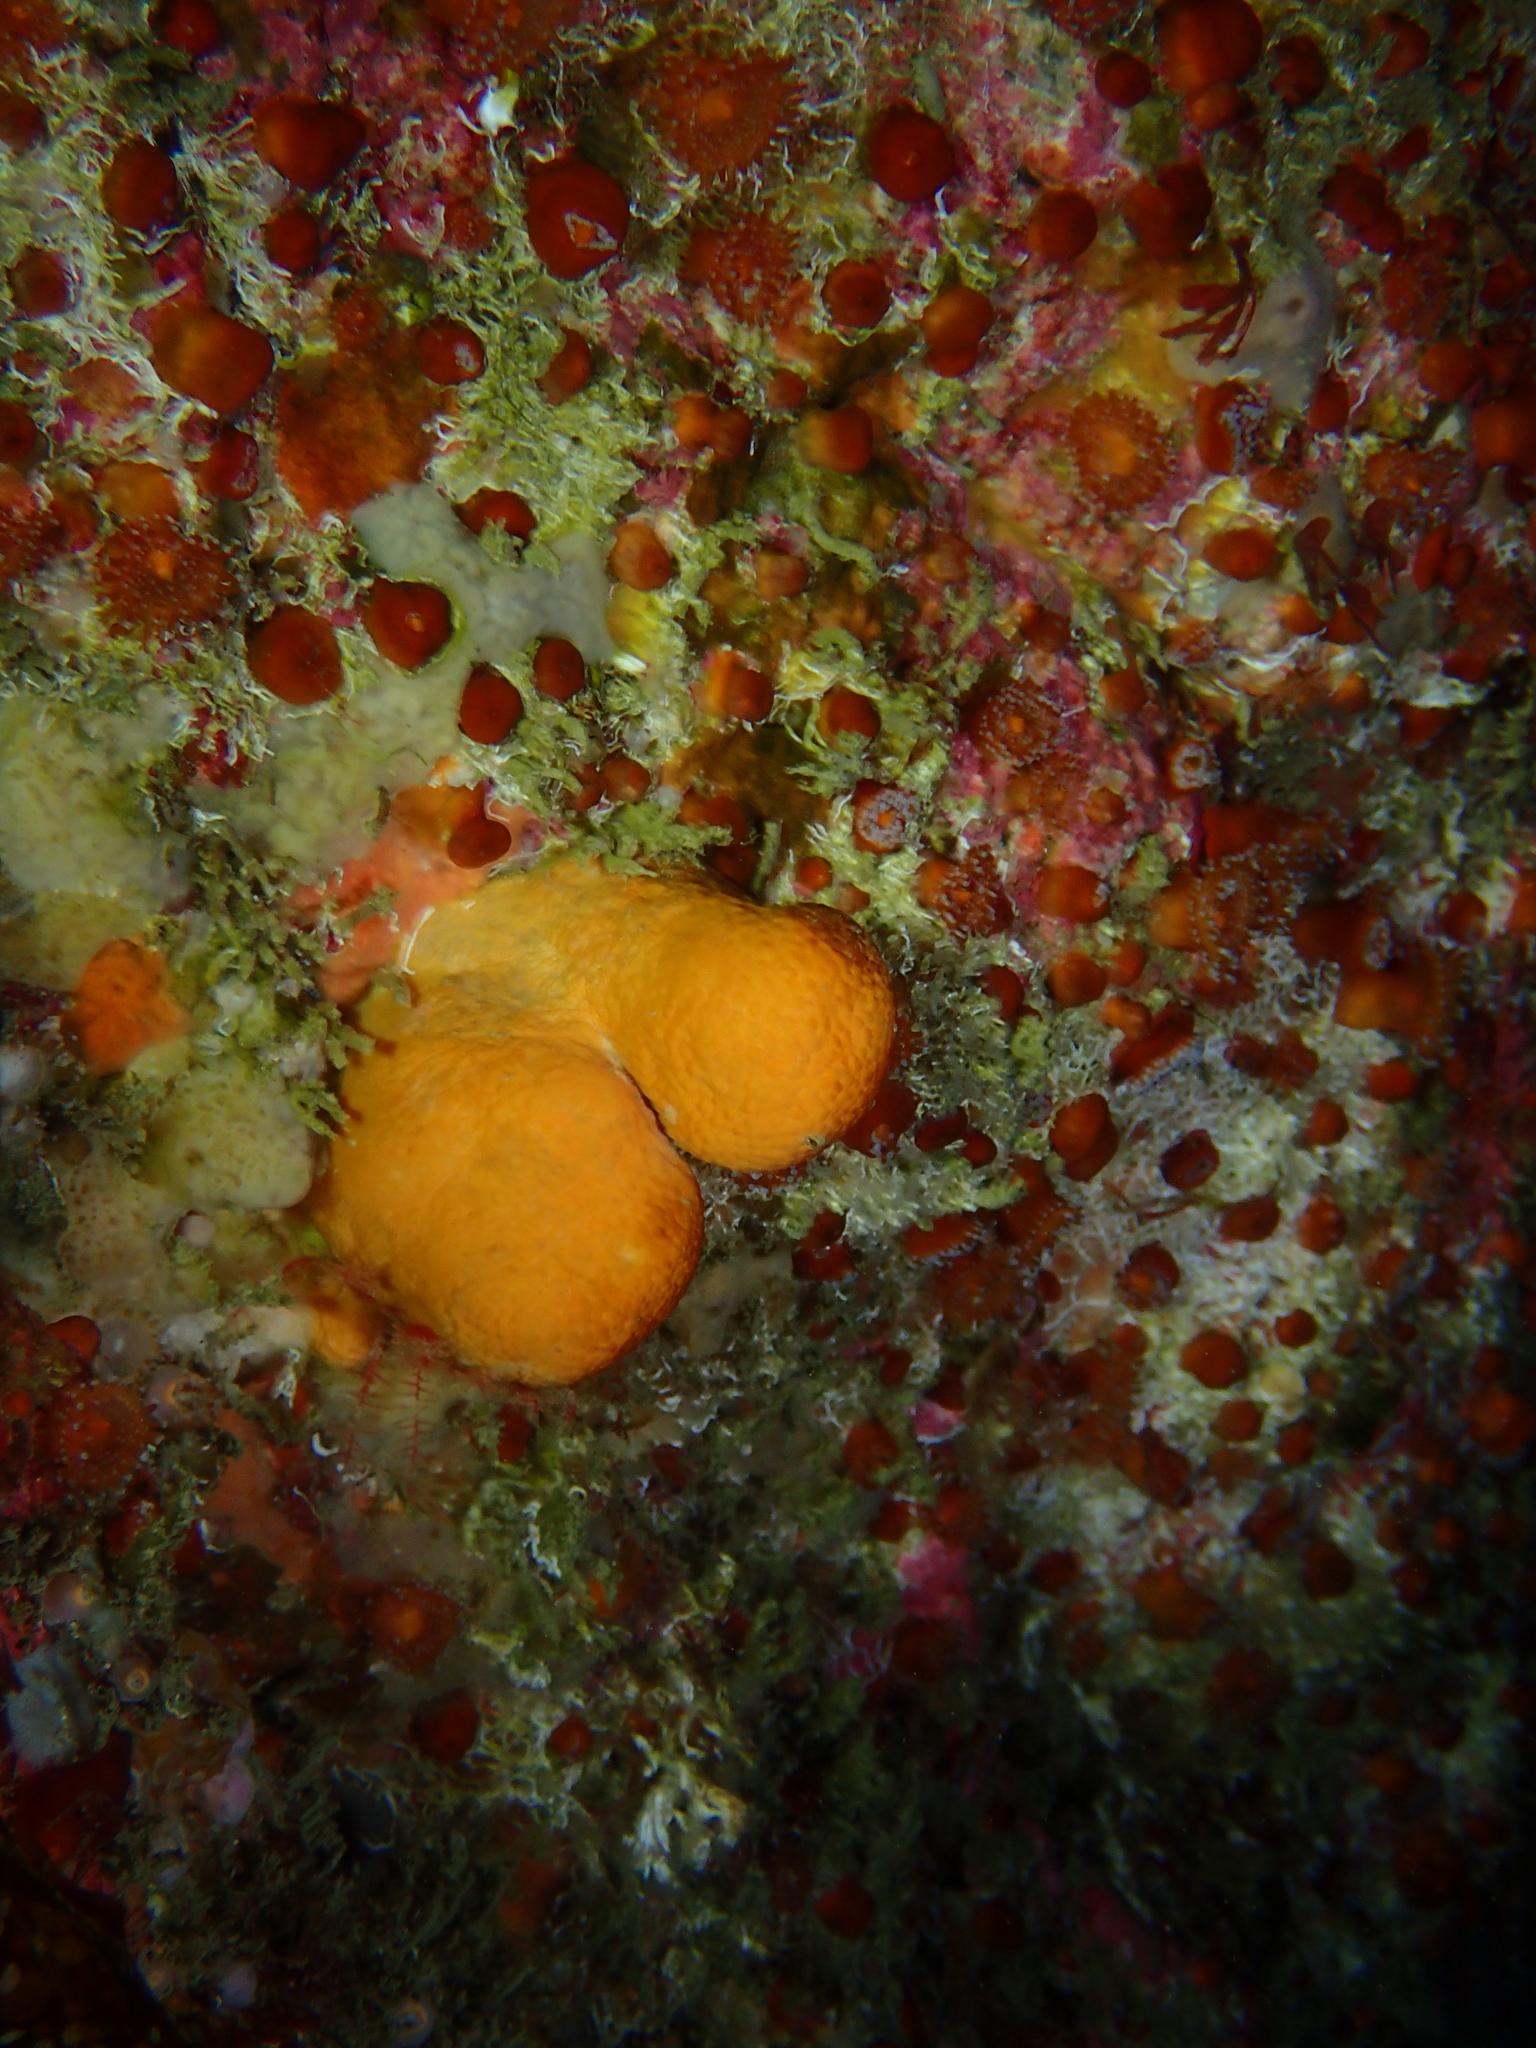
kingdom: Animalia
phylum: Cnidaria
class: Anthozoa
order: Malacalcyonacea
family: Alcyoniidae
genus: Alcyonium
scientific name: Alcyonium digitatum
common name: Dead man's fingers
